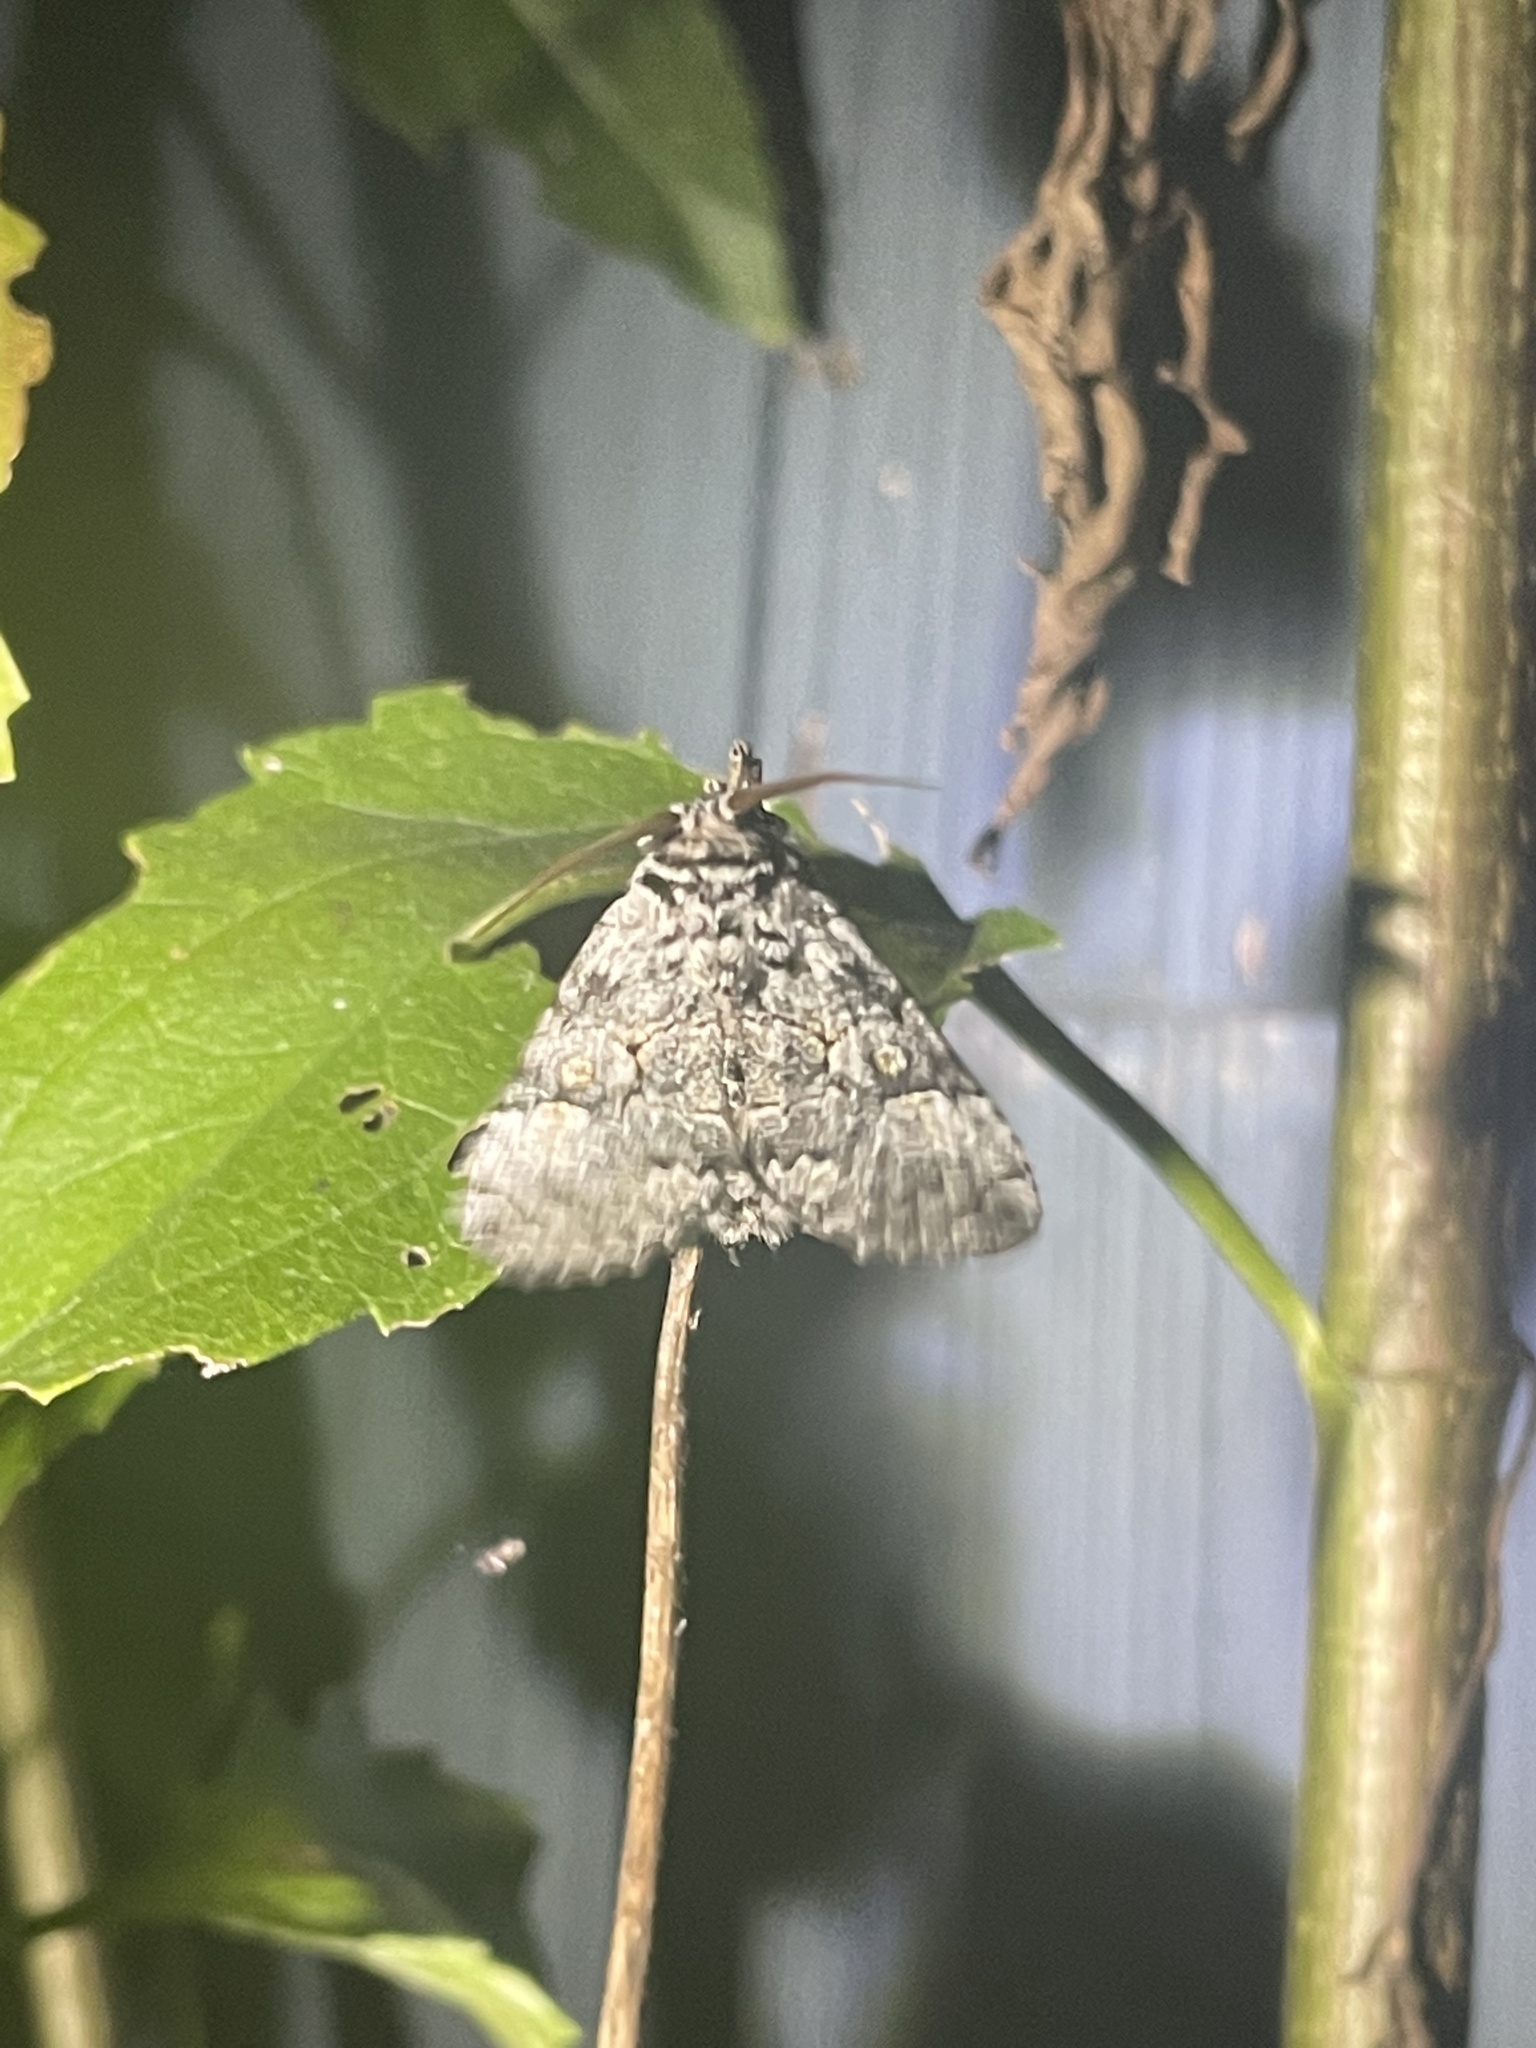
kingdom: Animalia
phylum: Arthropoda
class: Insecta
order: Lepidoptera
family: Noctuidae
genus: Charadra
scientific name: Charadra deridens
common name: Marbled tuffet
